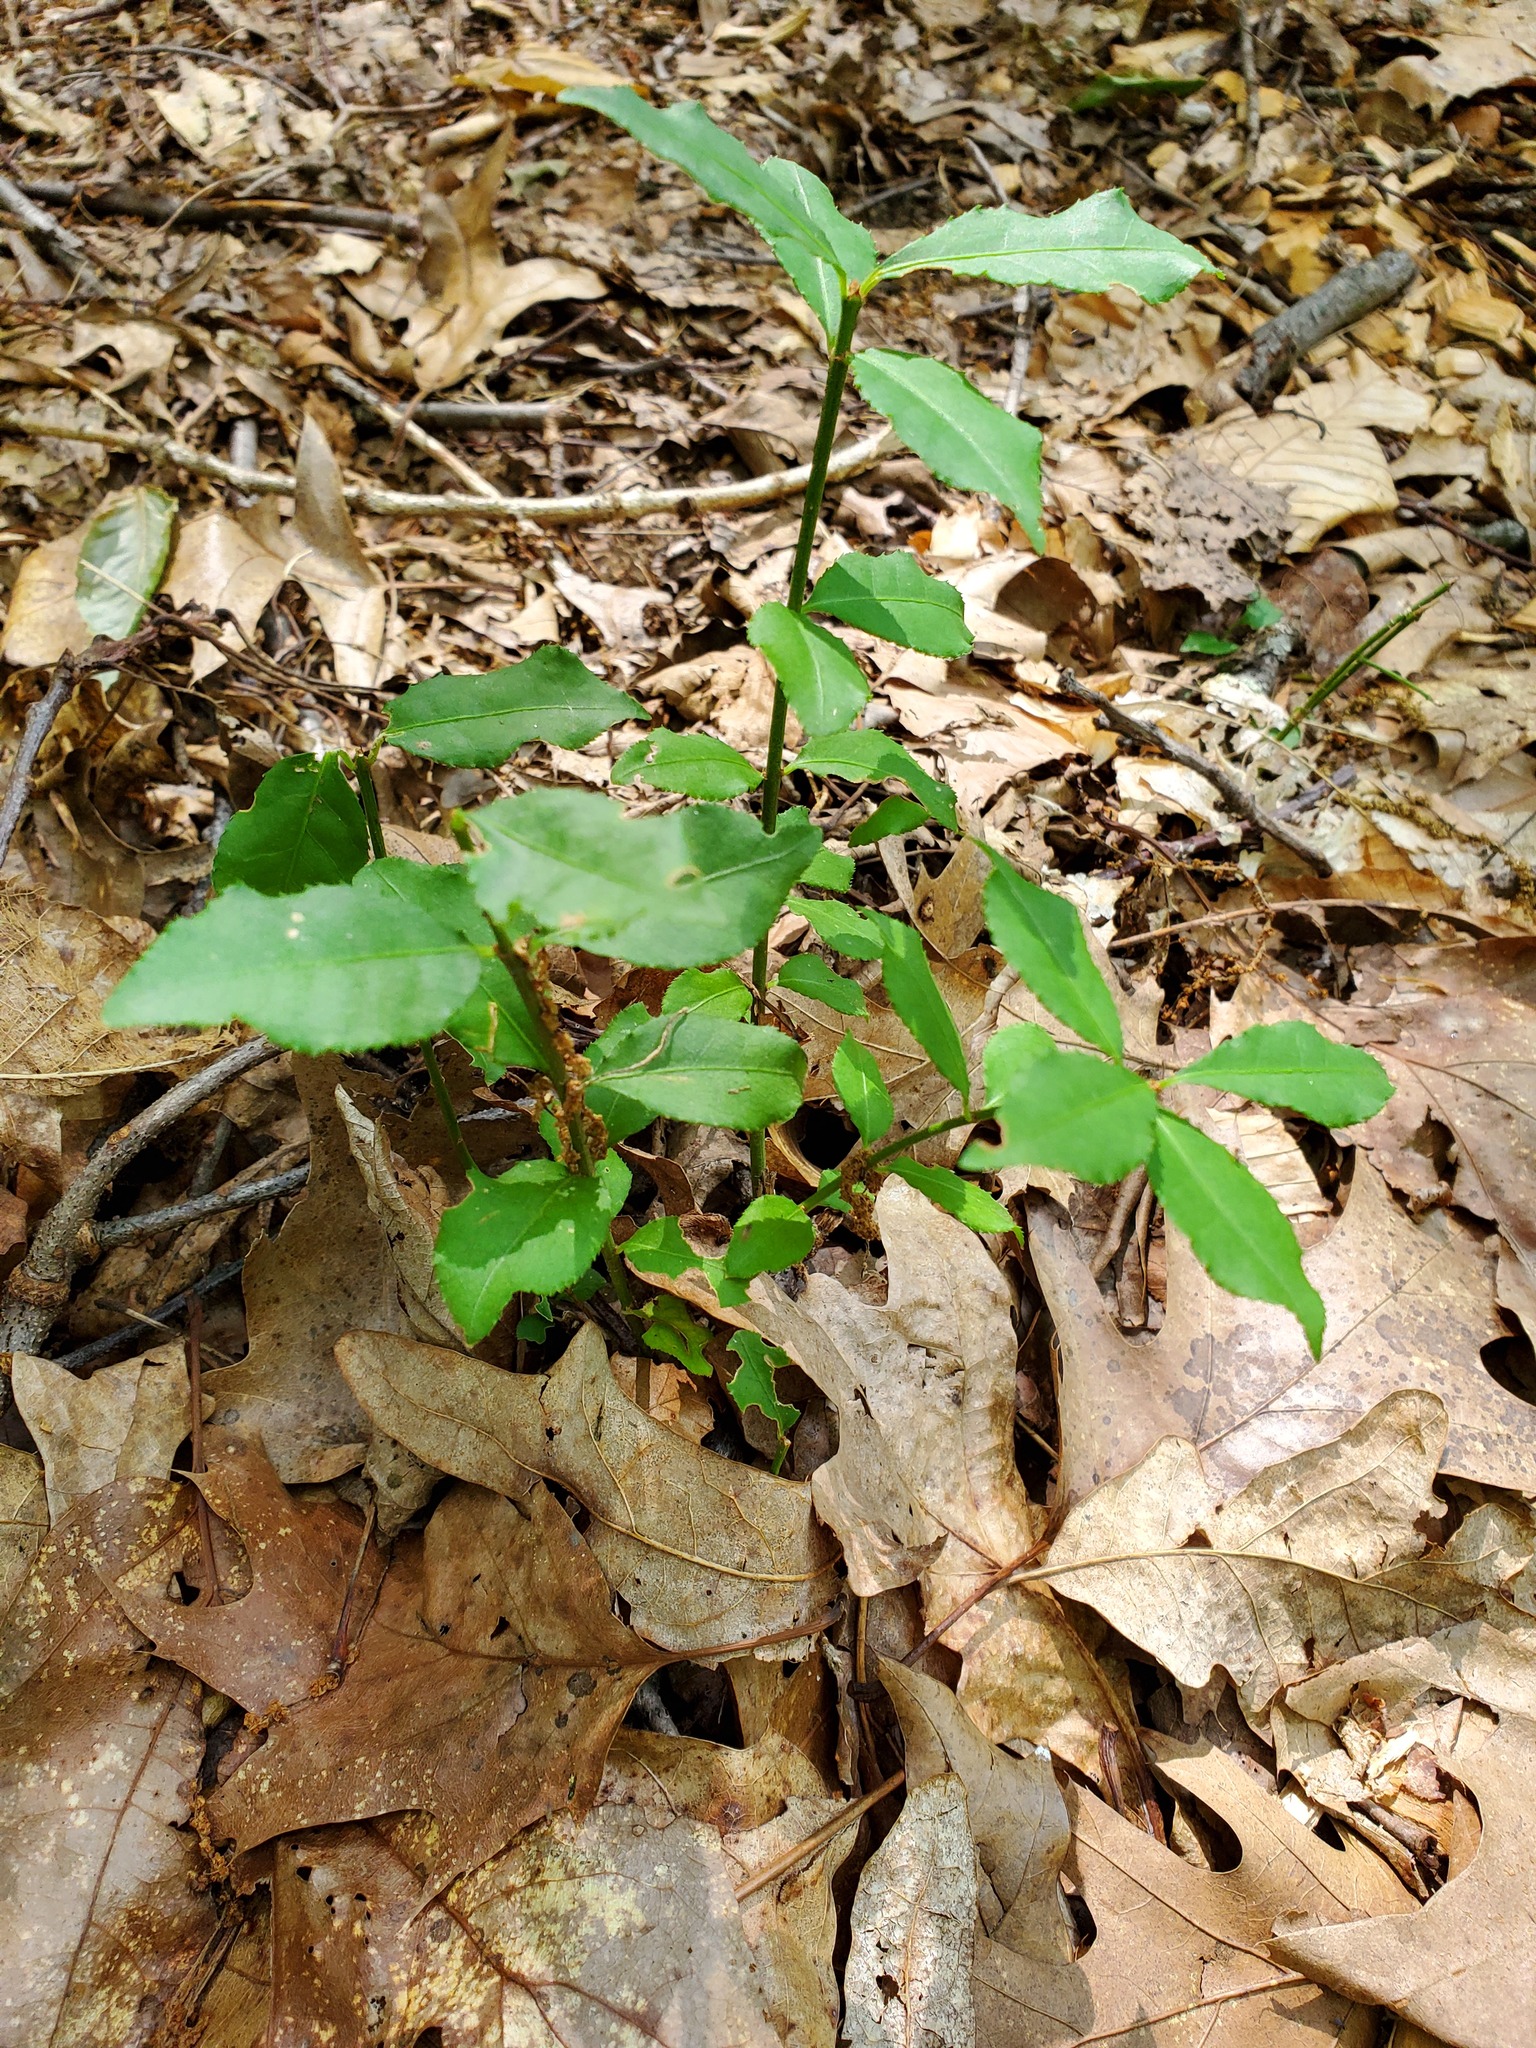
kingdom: Plantae
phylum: Tracheophyta
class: Magnoliopsida
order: Celastrales
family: Celastraceae
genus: Euonymus
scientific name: Euonymus alatus
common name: Winged euonymus
